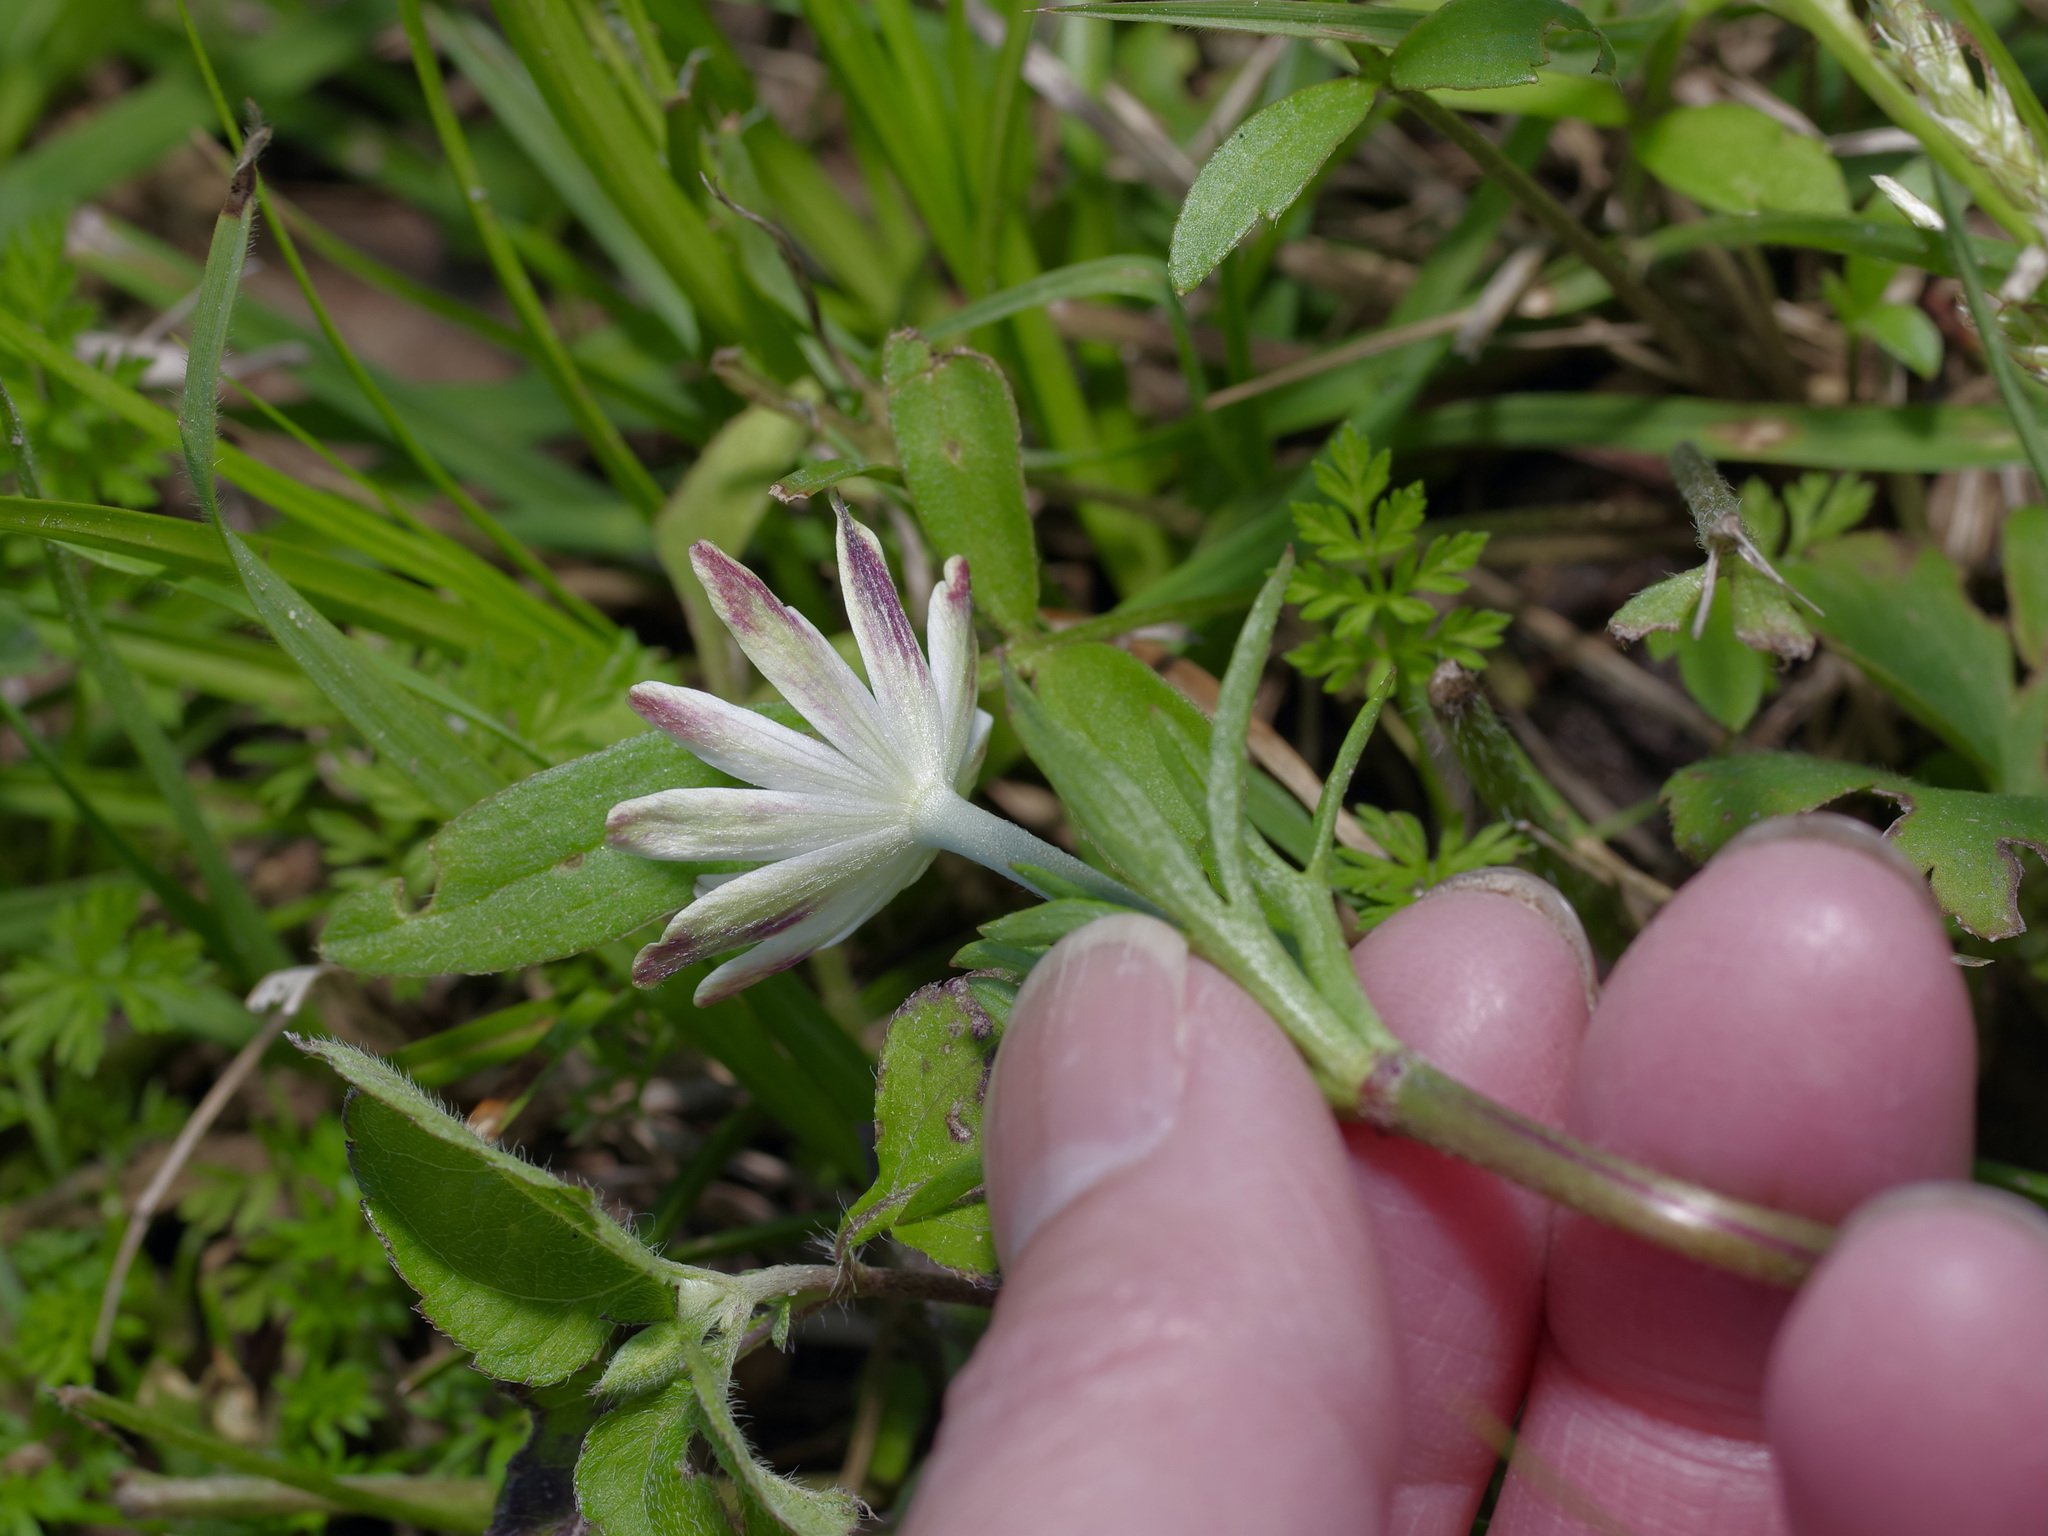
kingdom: Plantae
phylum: Tracheophyta
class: Magnoliopsida
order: Ranunculales
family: Ranunculaceae
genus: Anemone
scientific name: Anemone berlandieri
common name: Ten-petal anemone
